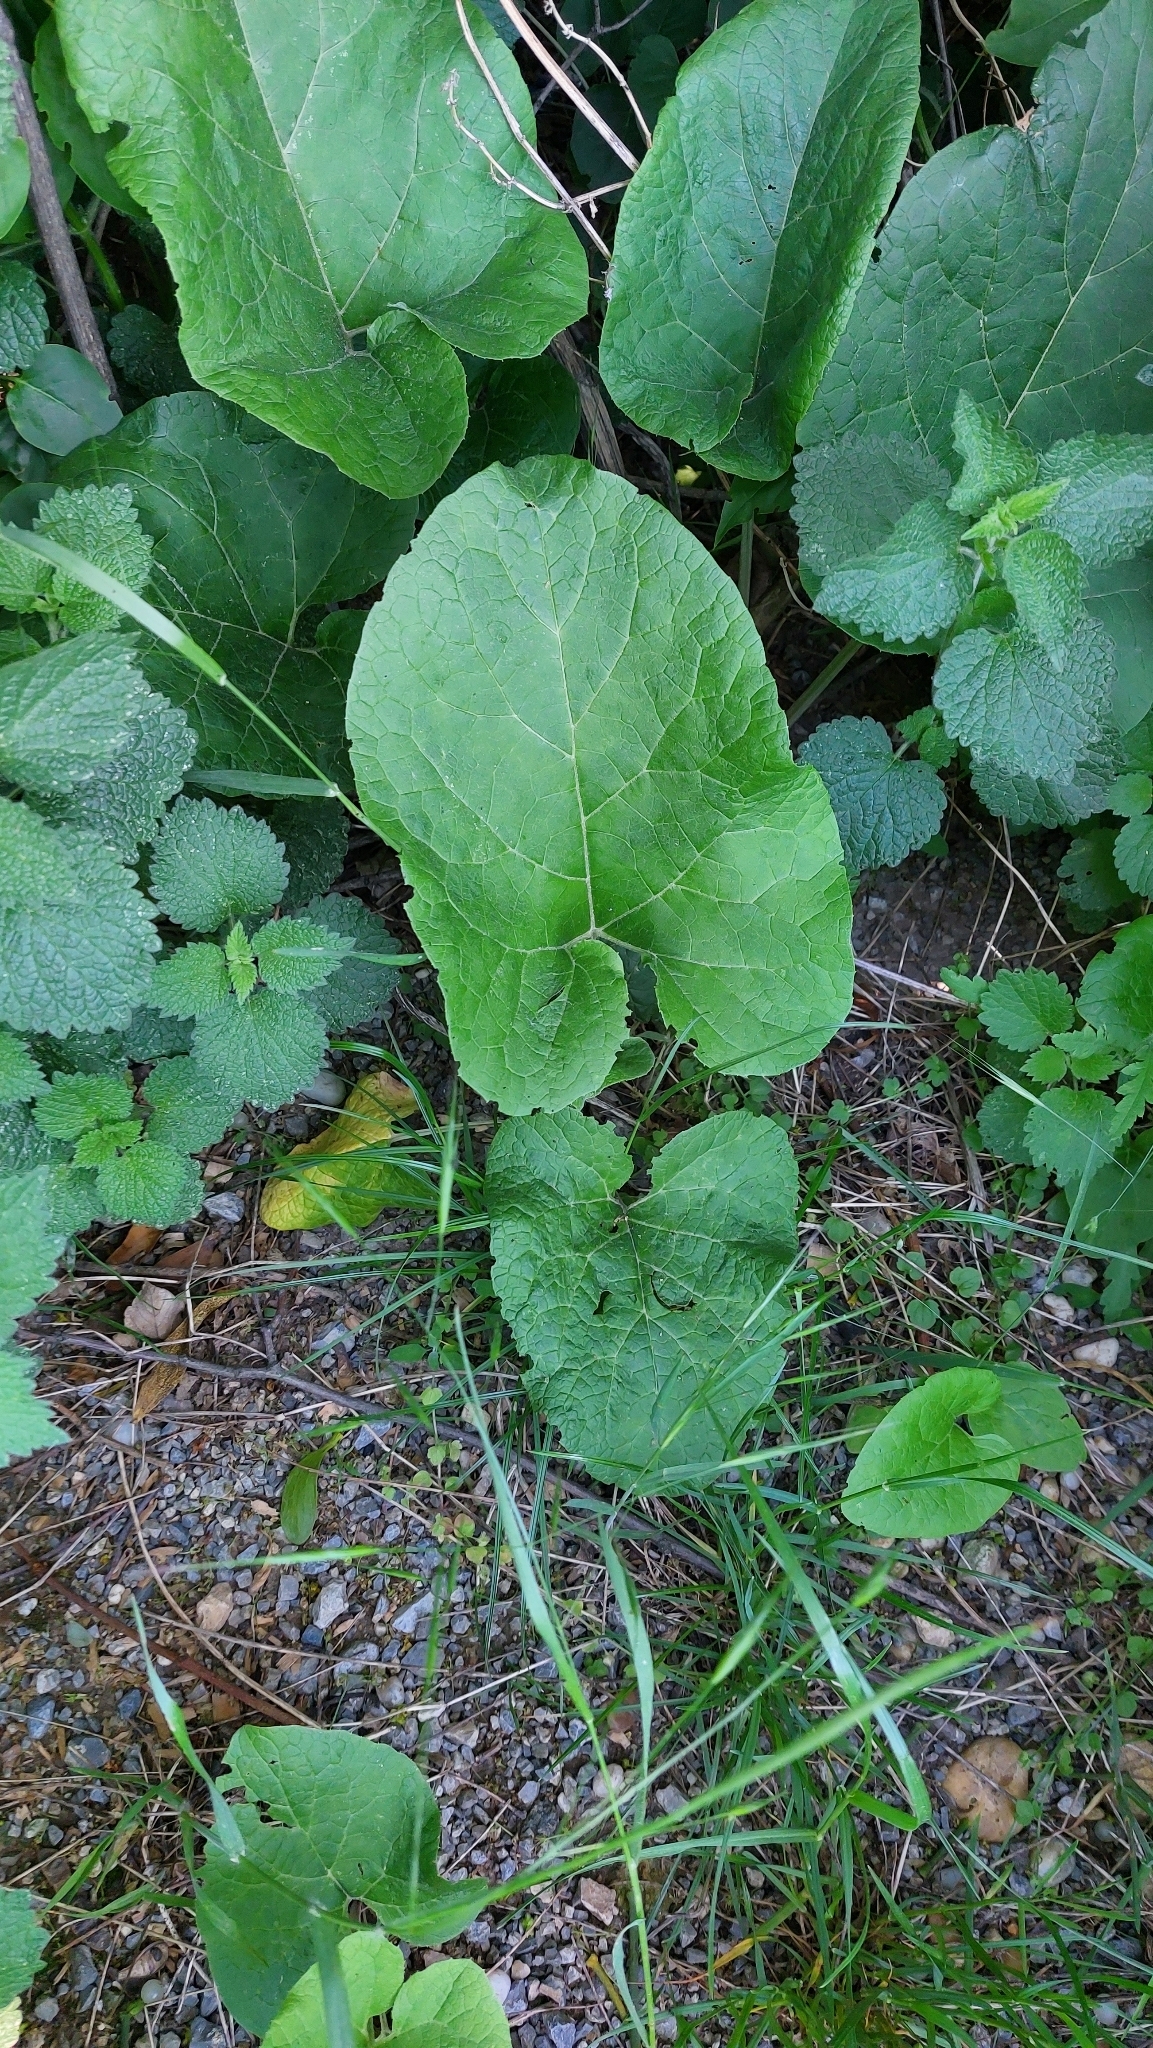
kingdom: Plantae
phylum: Tracheophyta
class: Magnoliopsida
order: Asterales
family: Asteraceae
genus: Arctium
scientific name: Arctium
